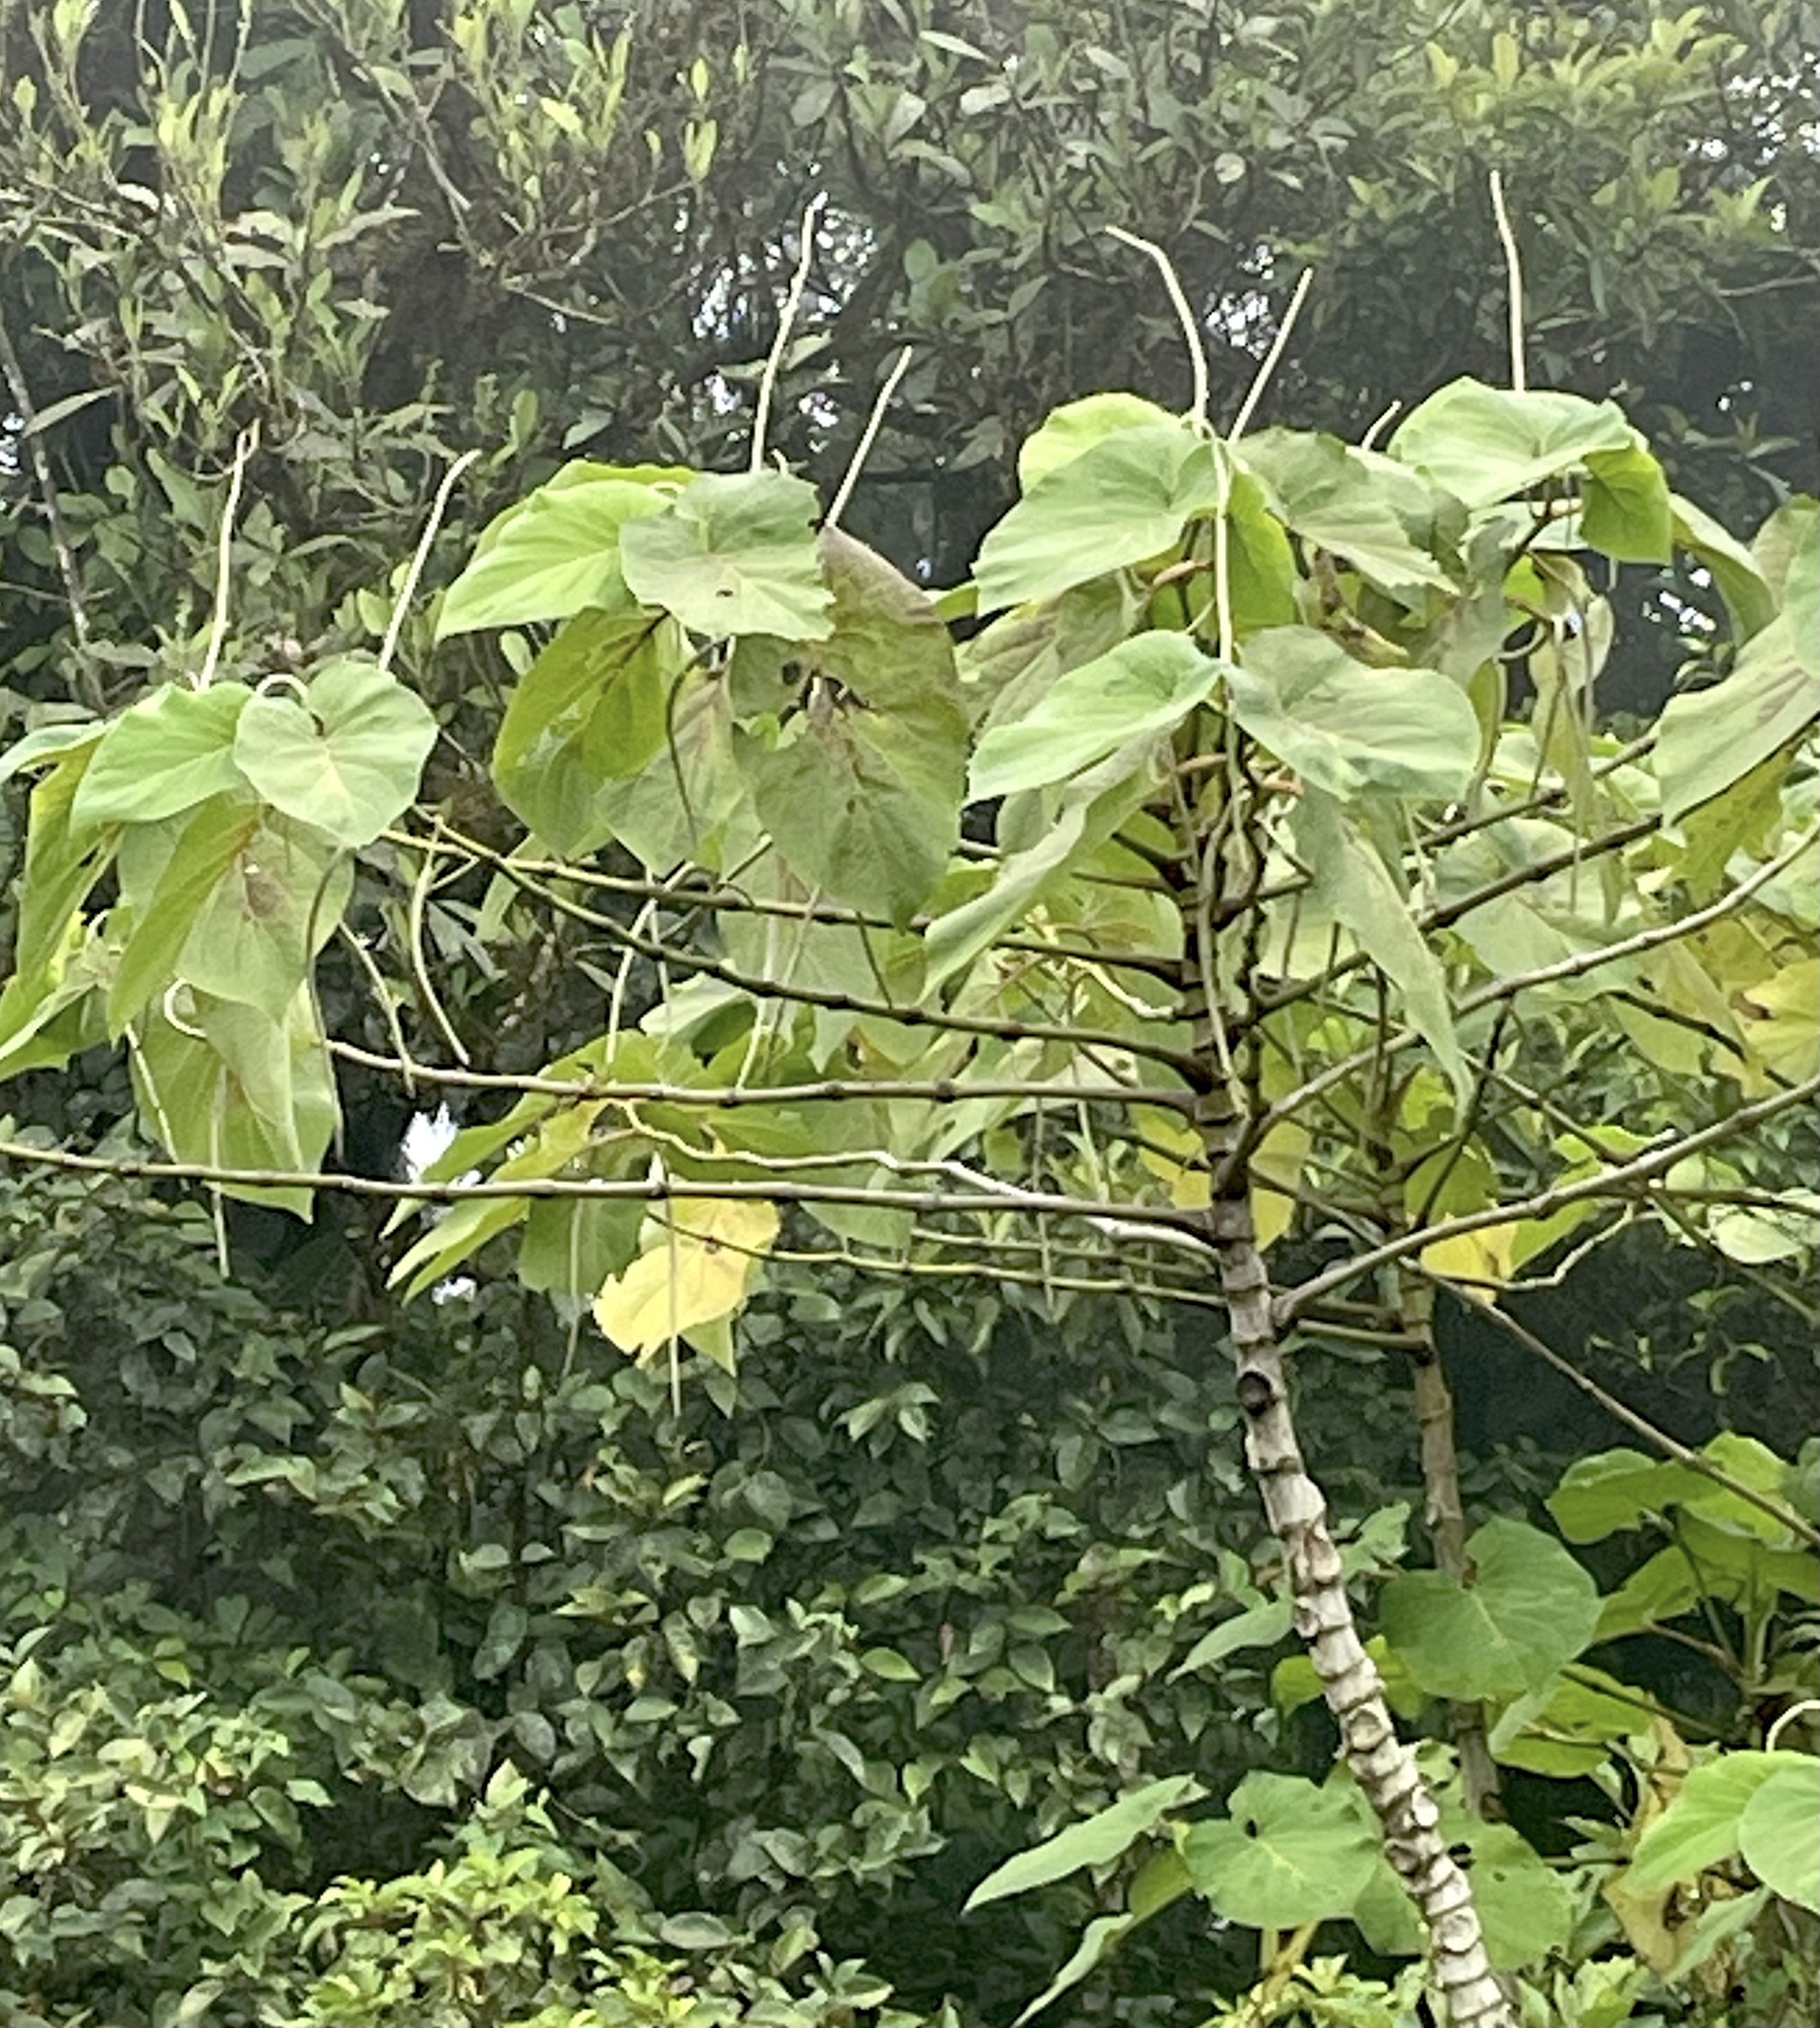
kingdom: Plantae
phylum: Tracheophyta
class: Magnoliopsida
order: Piperales
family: Piperaceae
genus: Piper
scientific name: Piper auritum
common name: Vera cruz pepper
